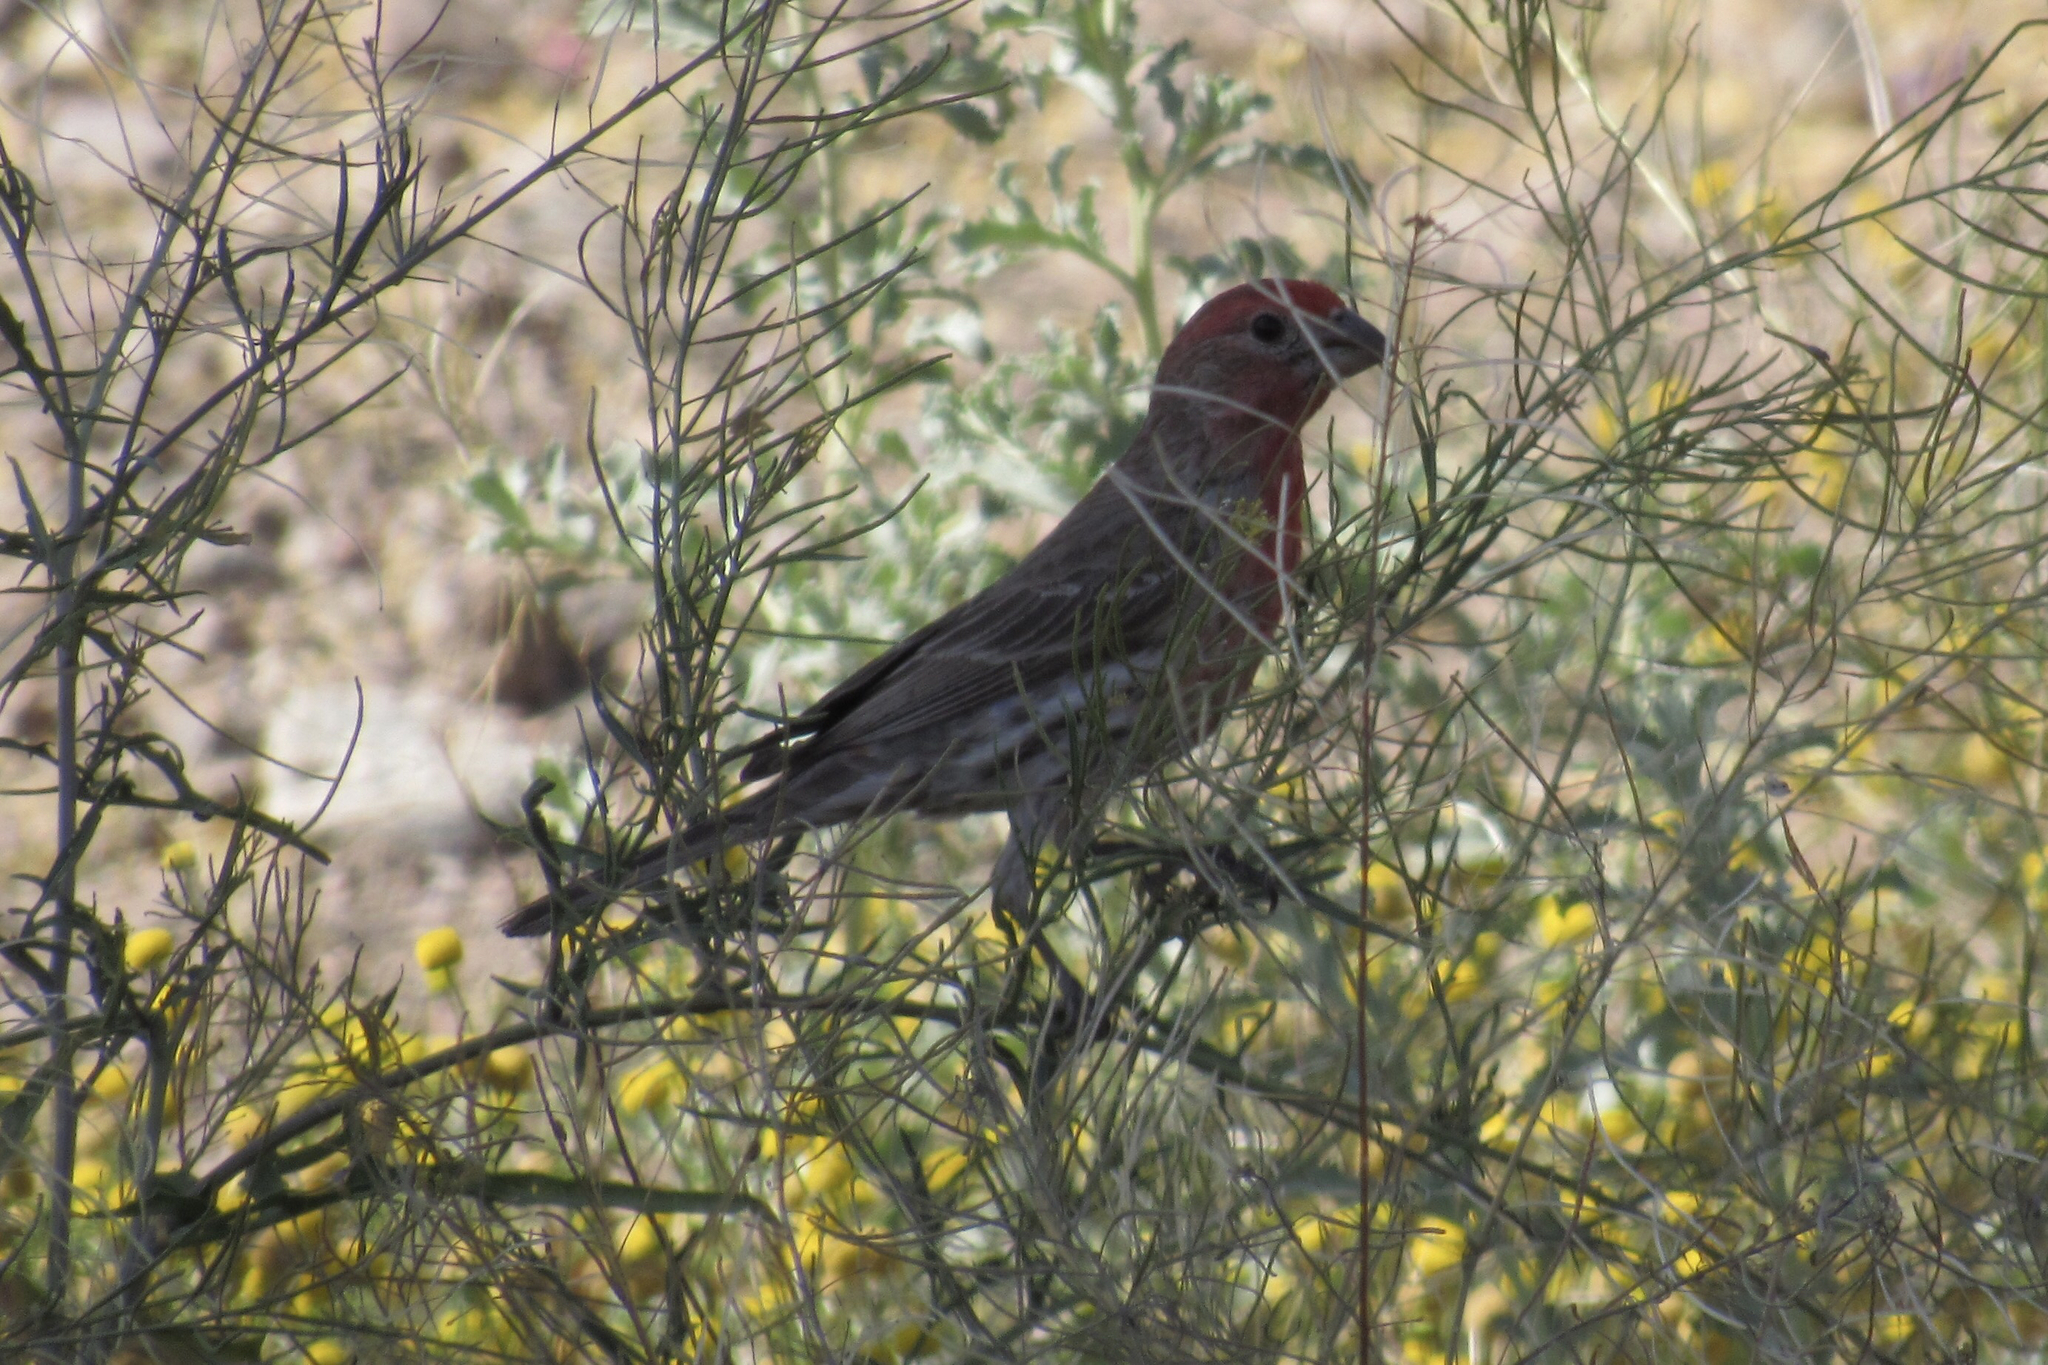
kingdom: Animalia
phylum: Chordata
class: Aves
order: Passeriformes
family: Fringillidae
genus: Haemorhous
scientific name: Haemorhous mexicanus
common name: House finch
